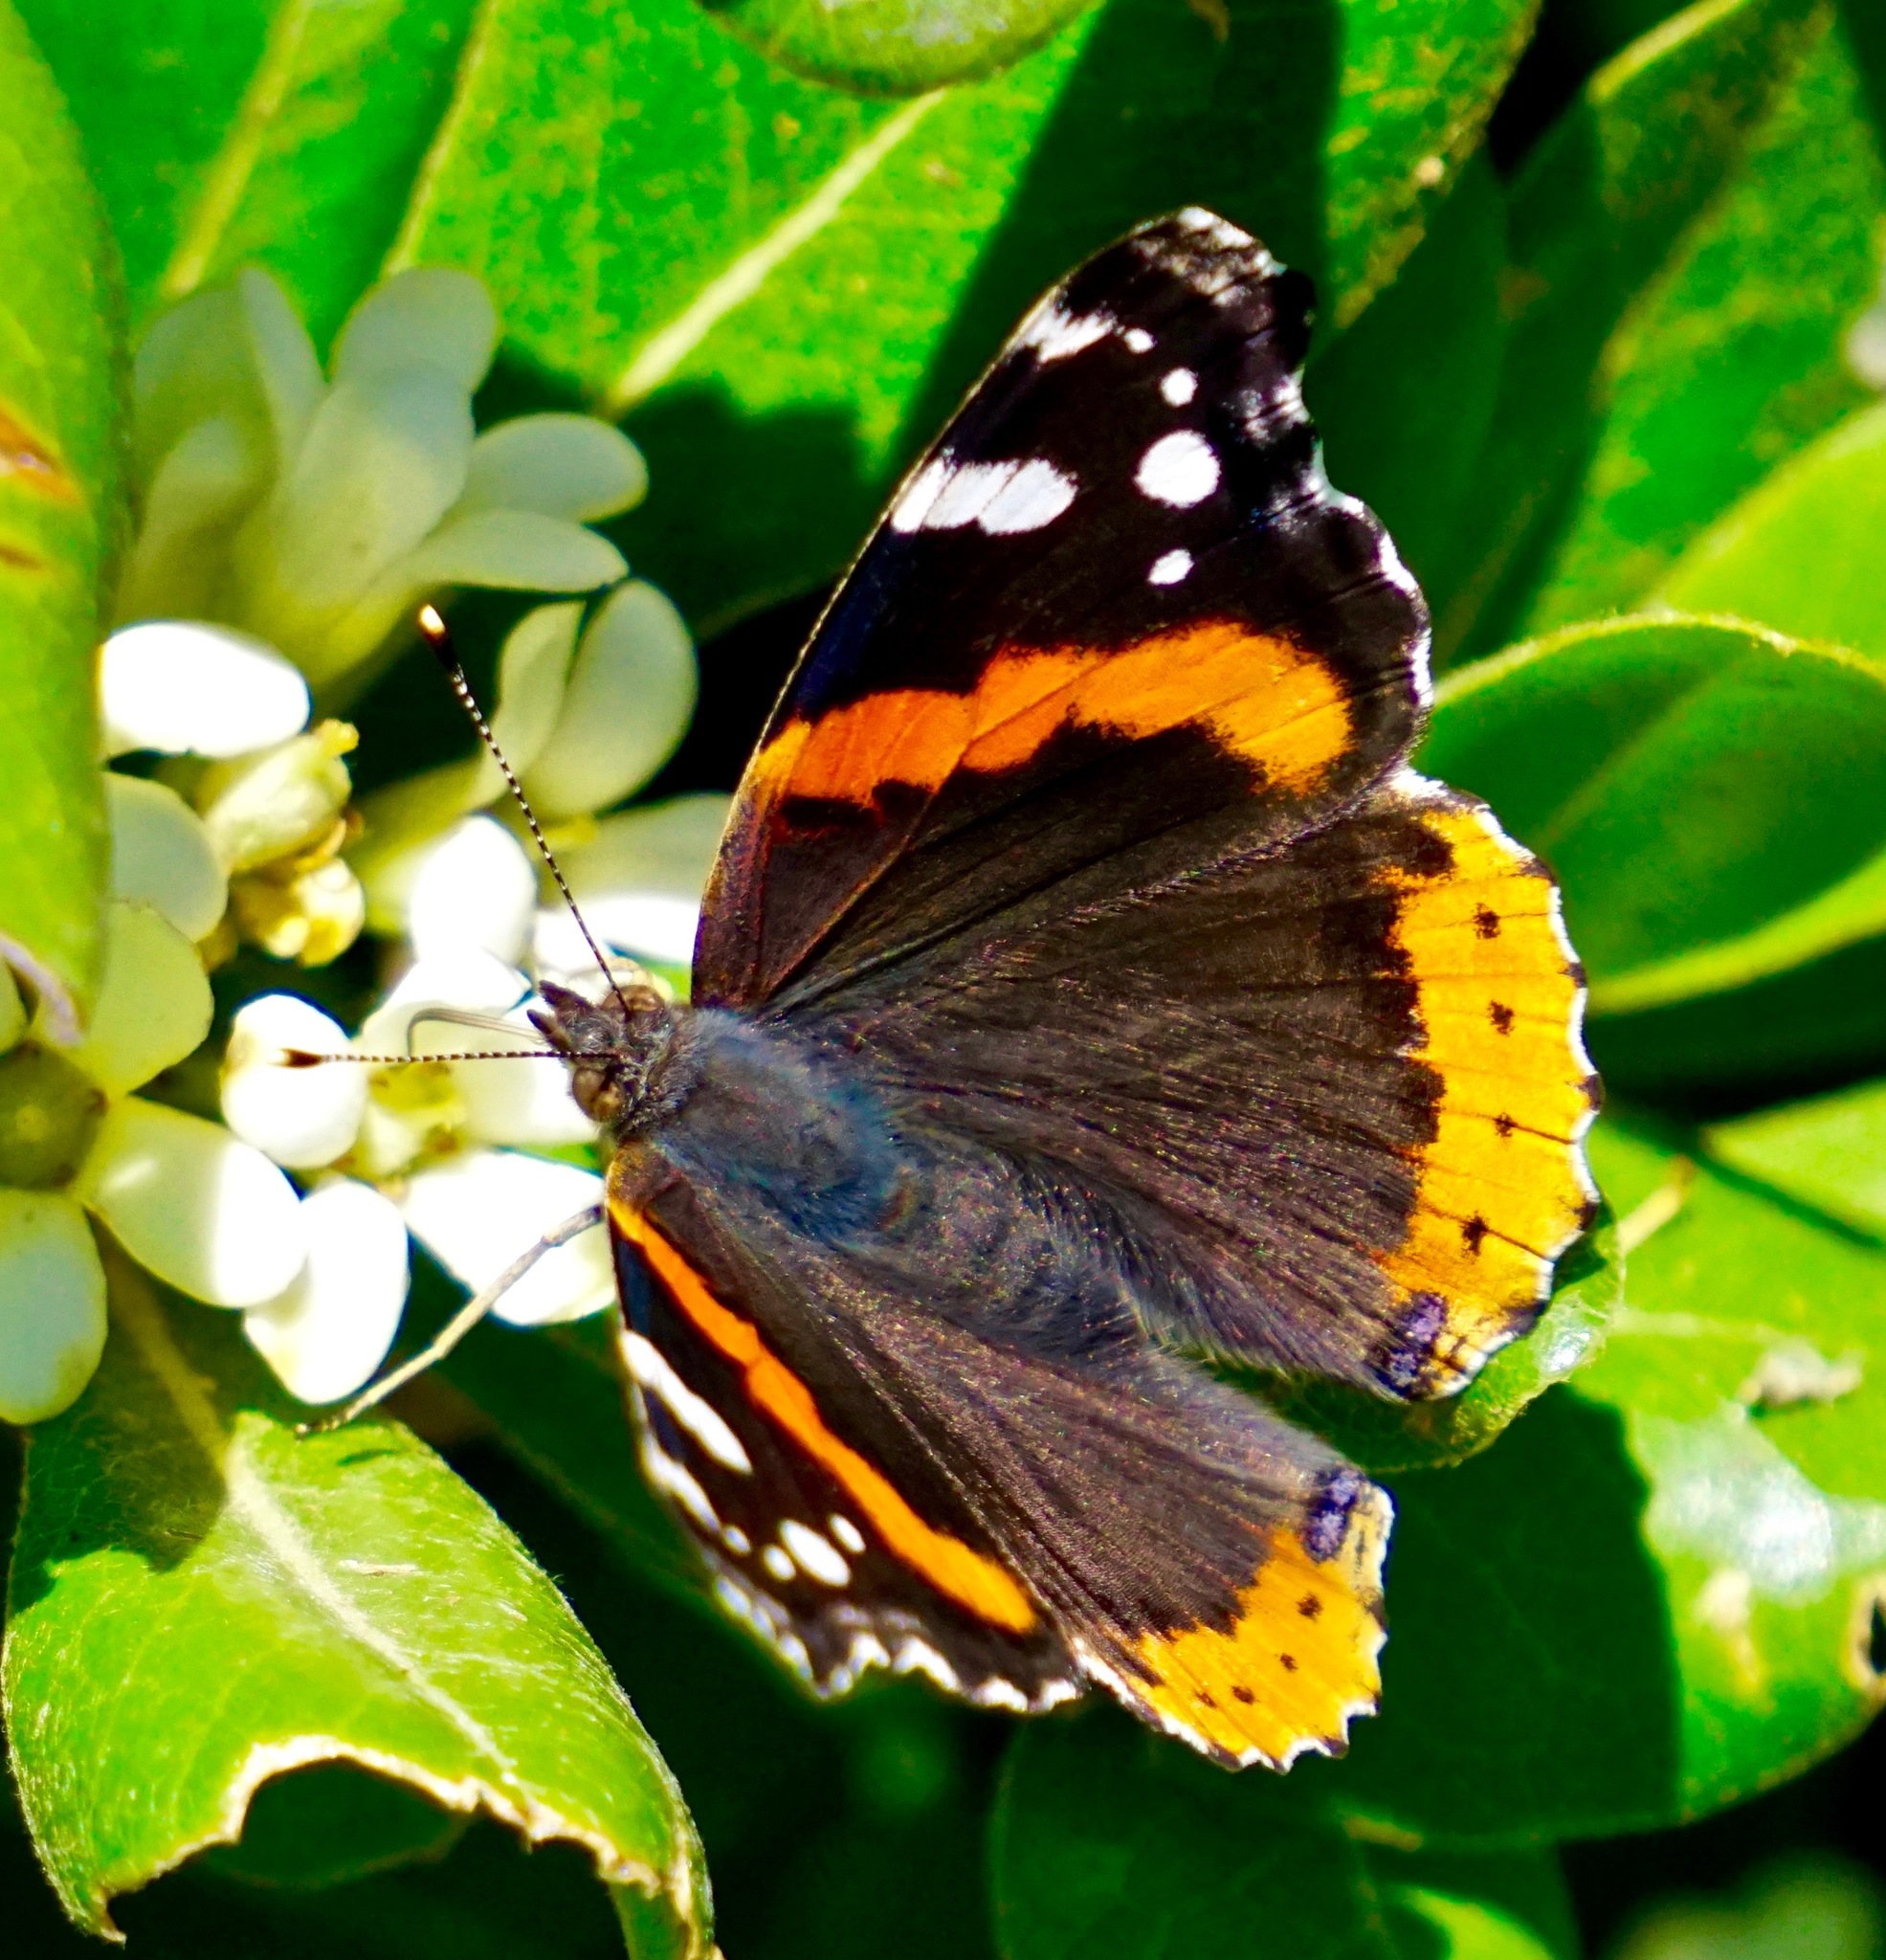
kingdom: Animalia
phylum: Arthropoda
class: Insecta
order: Lepidoptera
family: Nymphalidae
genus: Vanessa
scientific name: Vanessa atalanta
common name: Red admiral
